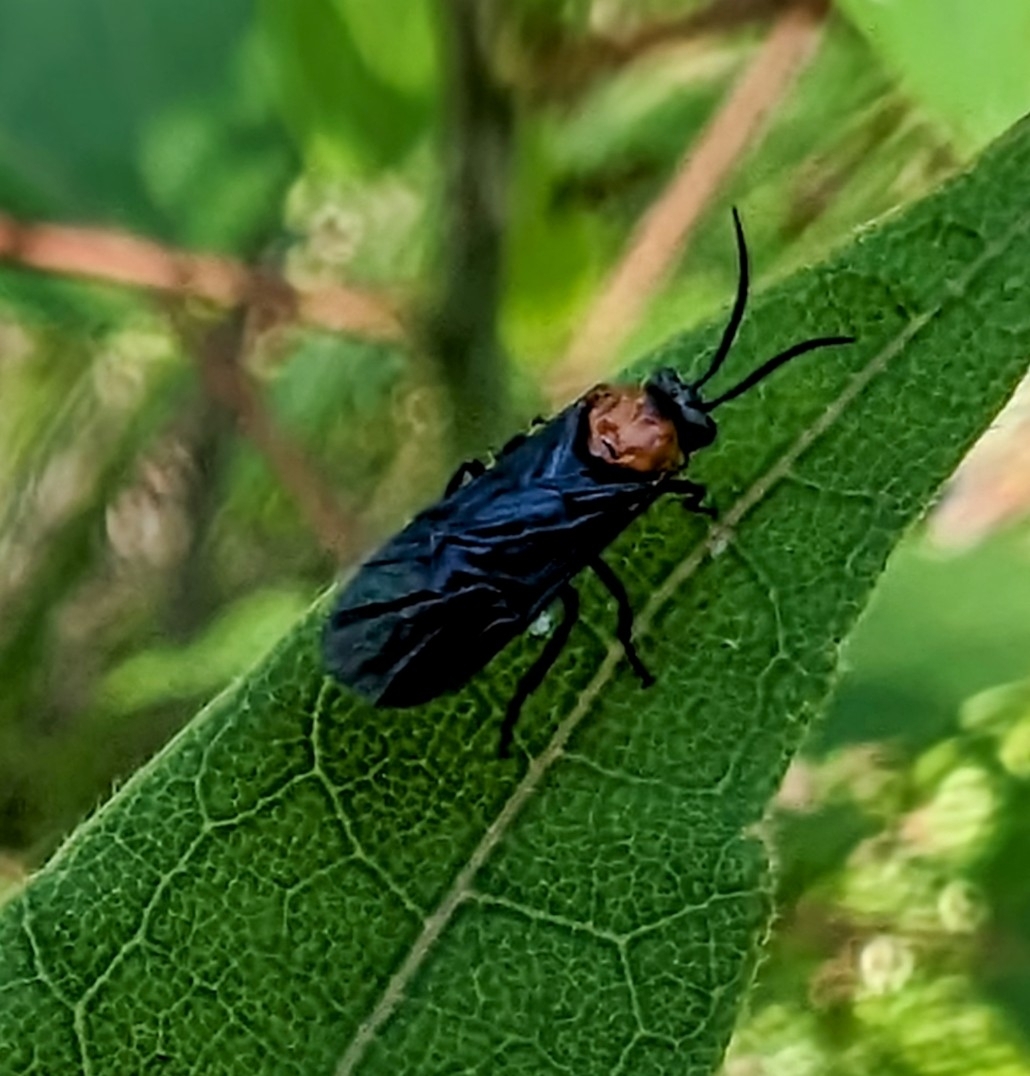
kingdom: Animalia
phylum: Arthropoda
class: Insecta
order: Hymenoptera
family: Argidae
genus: Atomacera
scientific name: Atomacera
